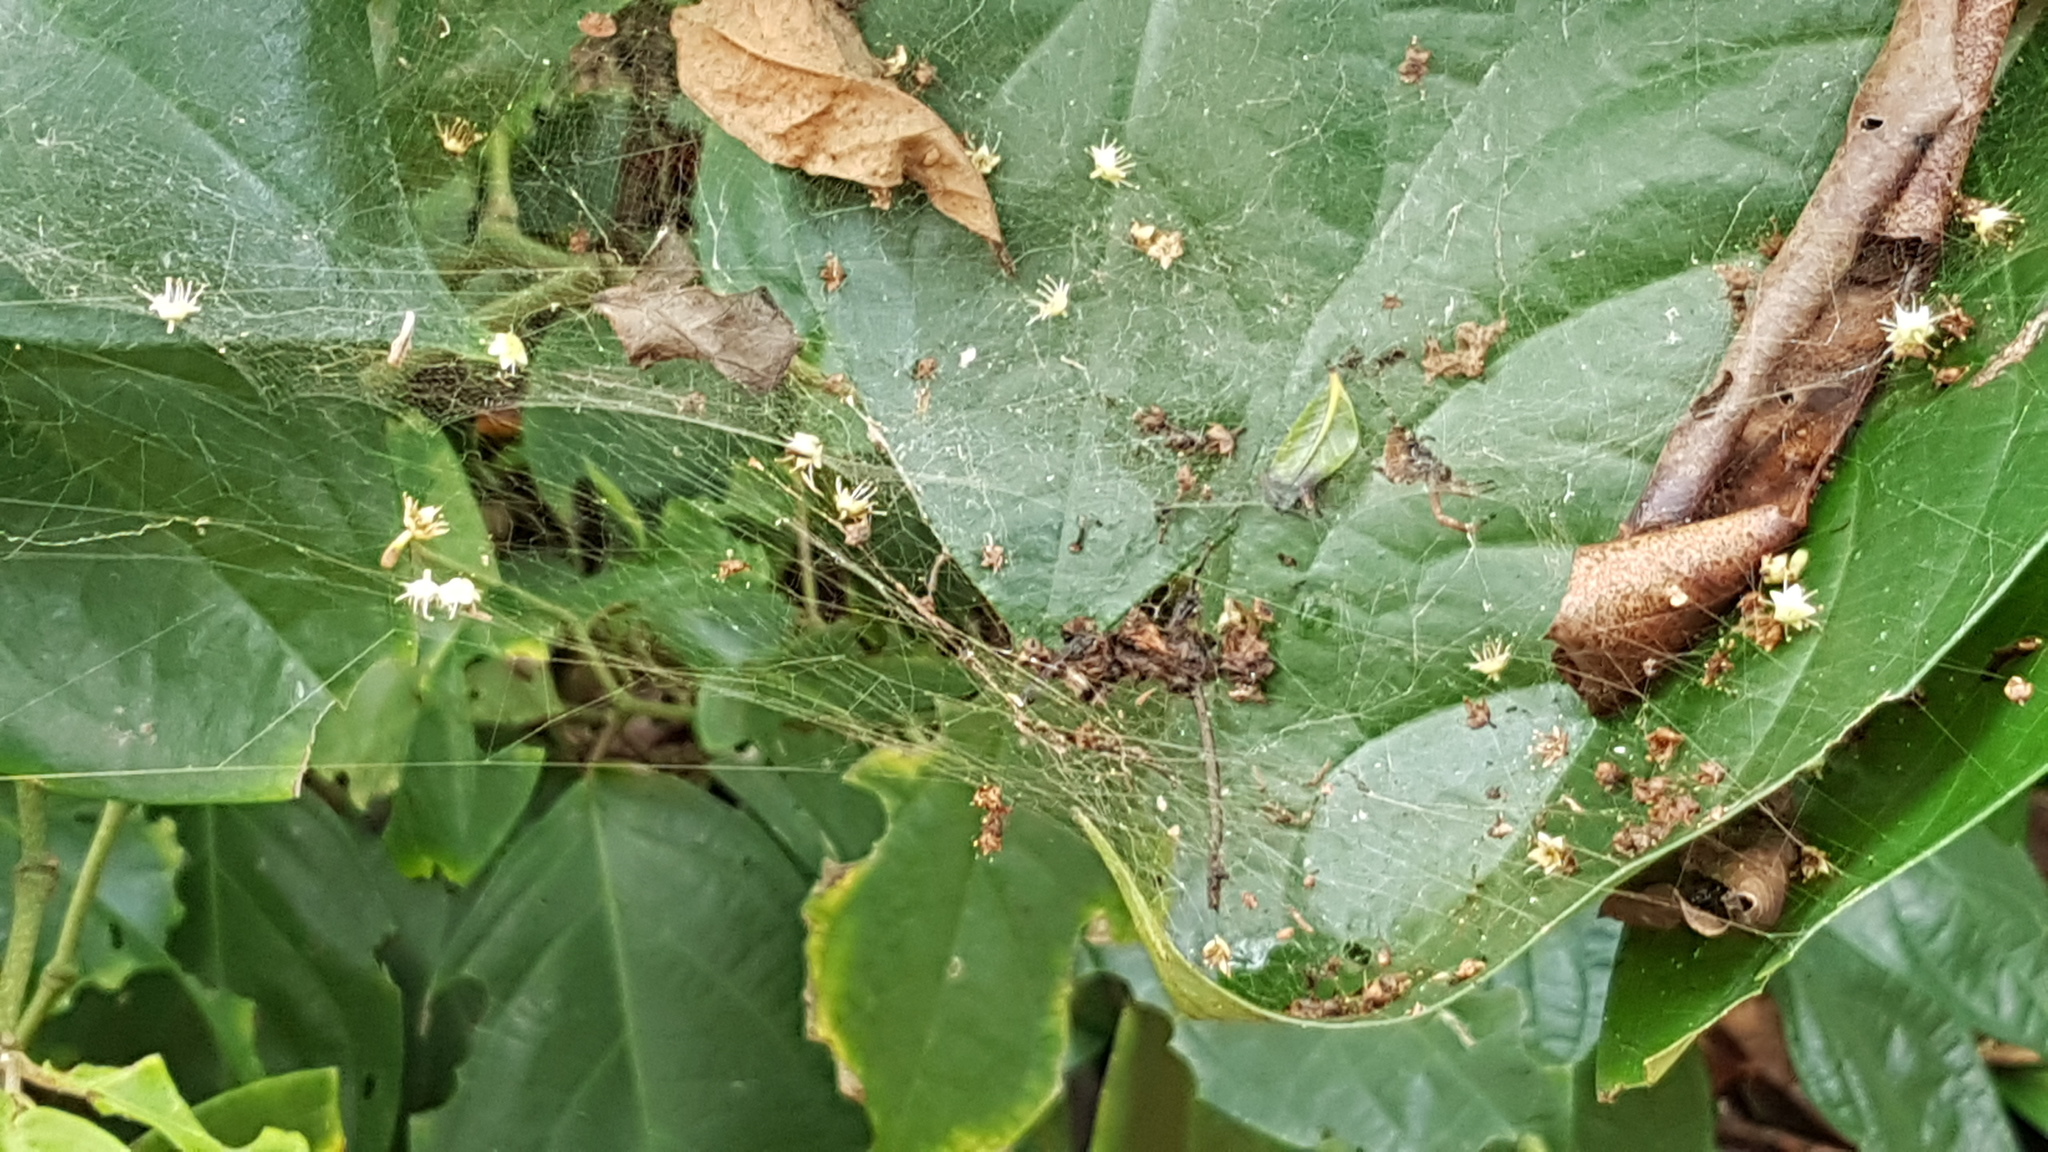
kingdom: Animalia
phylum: Arthropoda
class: Arachnida
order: Araneae
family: Araneidae
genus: Kapogea
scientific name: Kapogea cyrtophoroides
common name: Orb weavers
